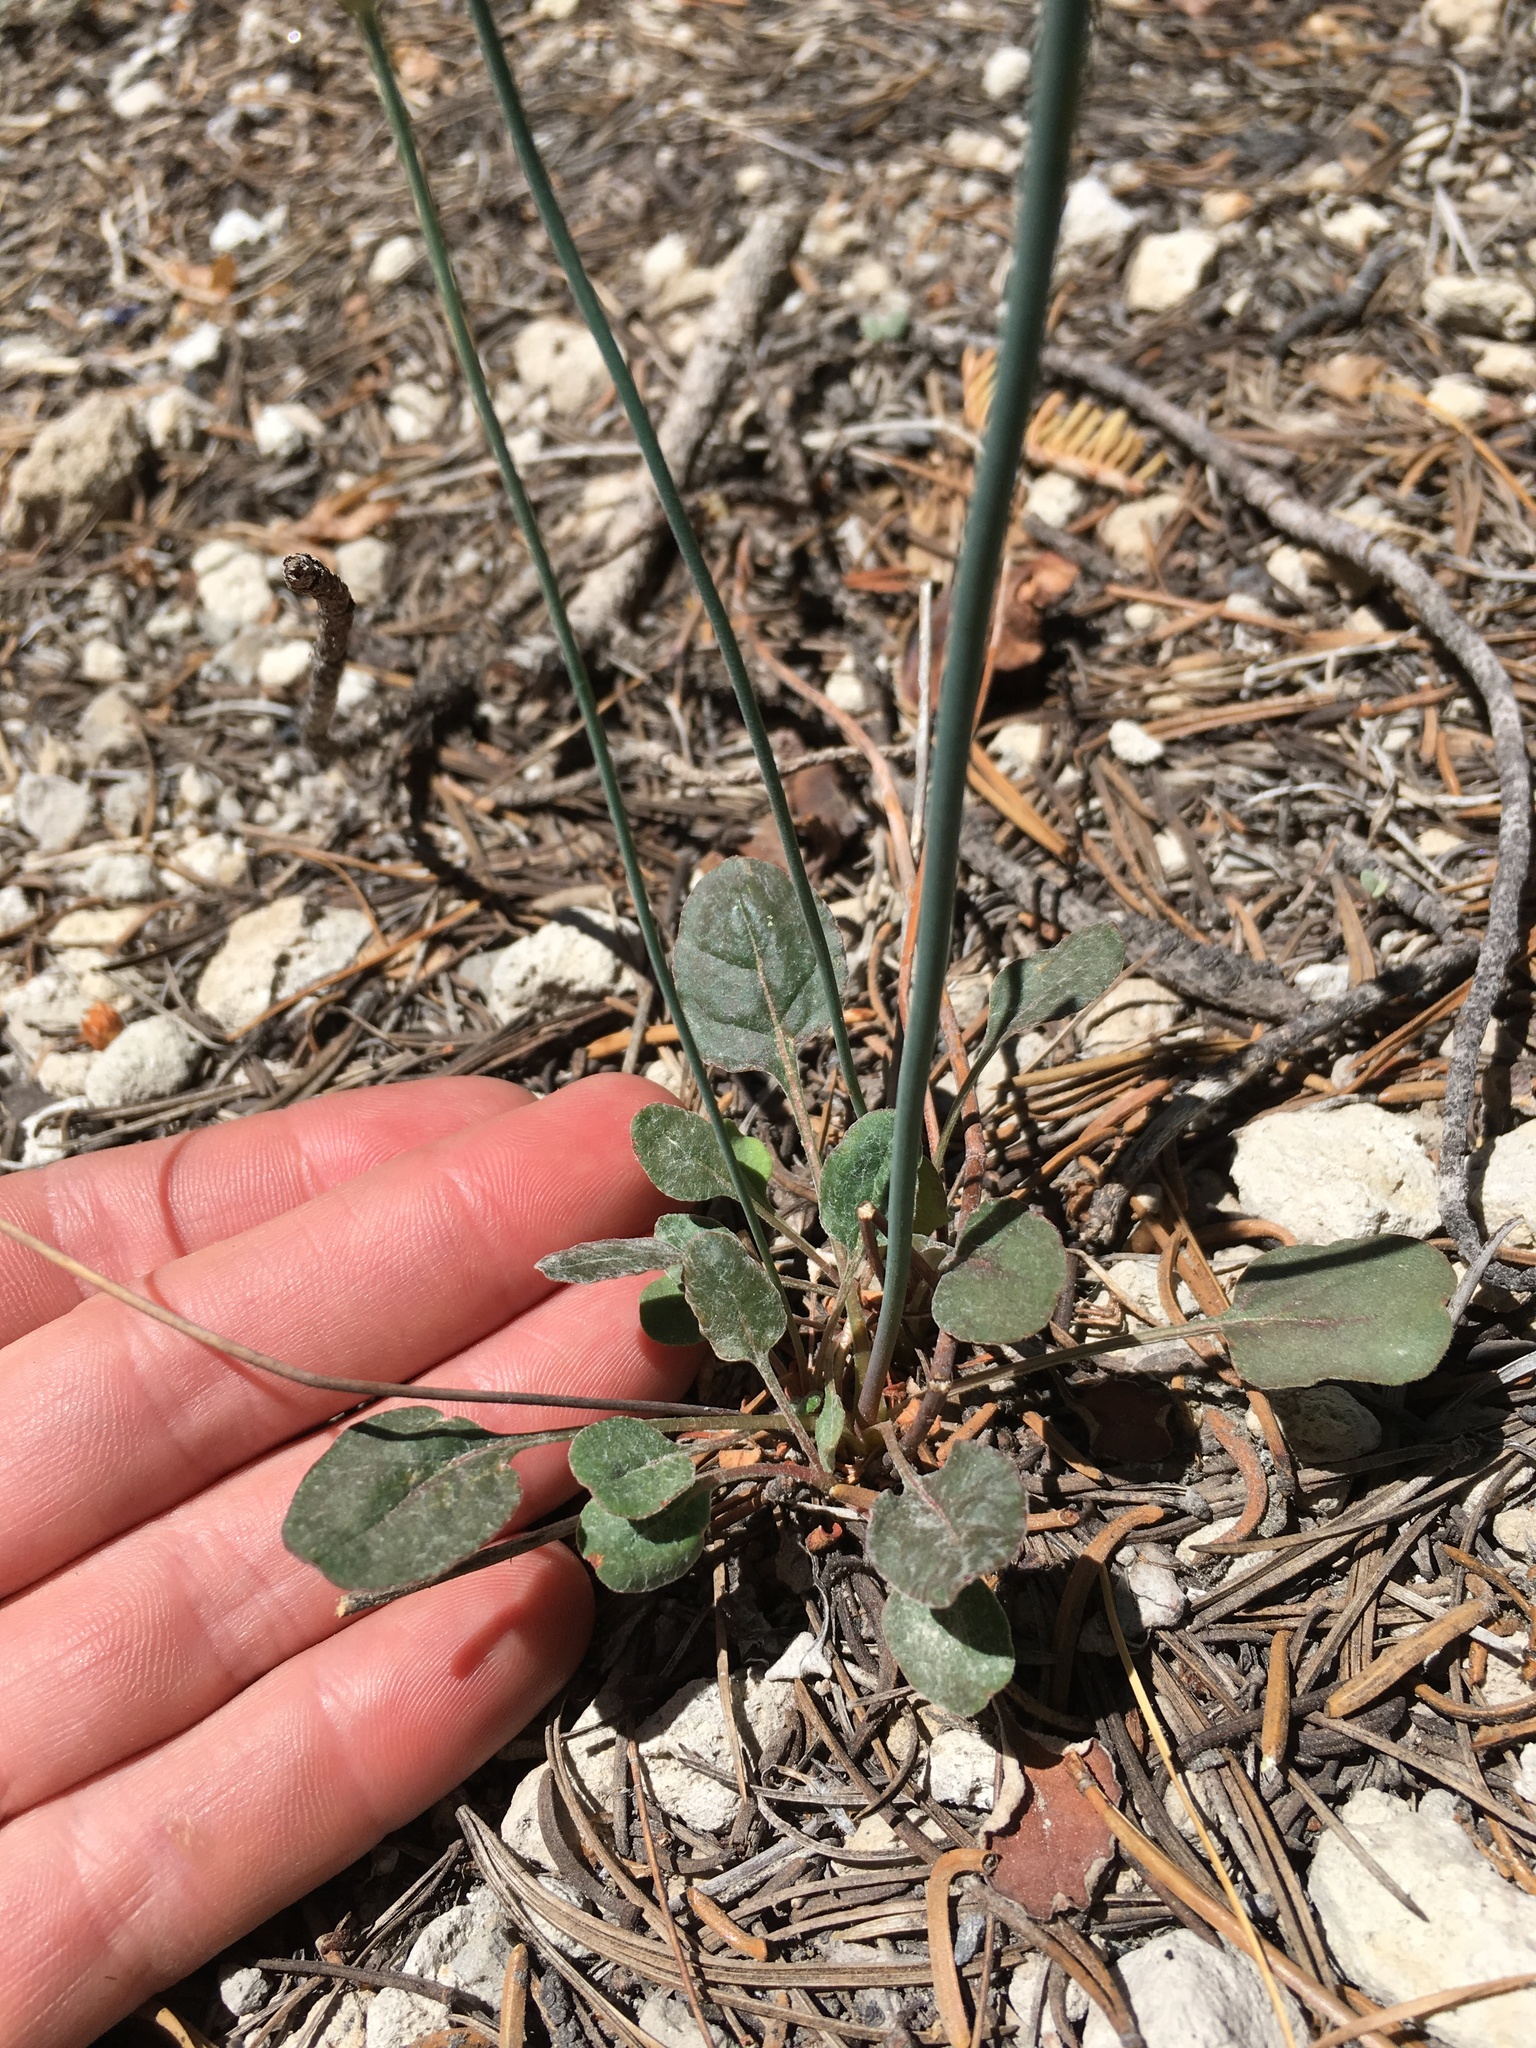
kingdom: Plantae
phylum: Tracheophyta
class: Magnoliopsida
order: Caryophyllales
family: Polygonaceae
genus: Eriogonum
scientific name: Eriogonum nudum
